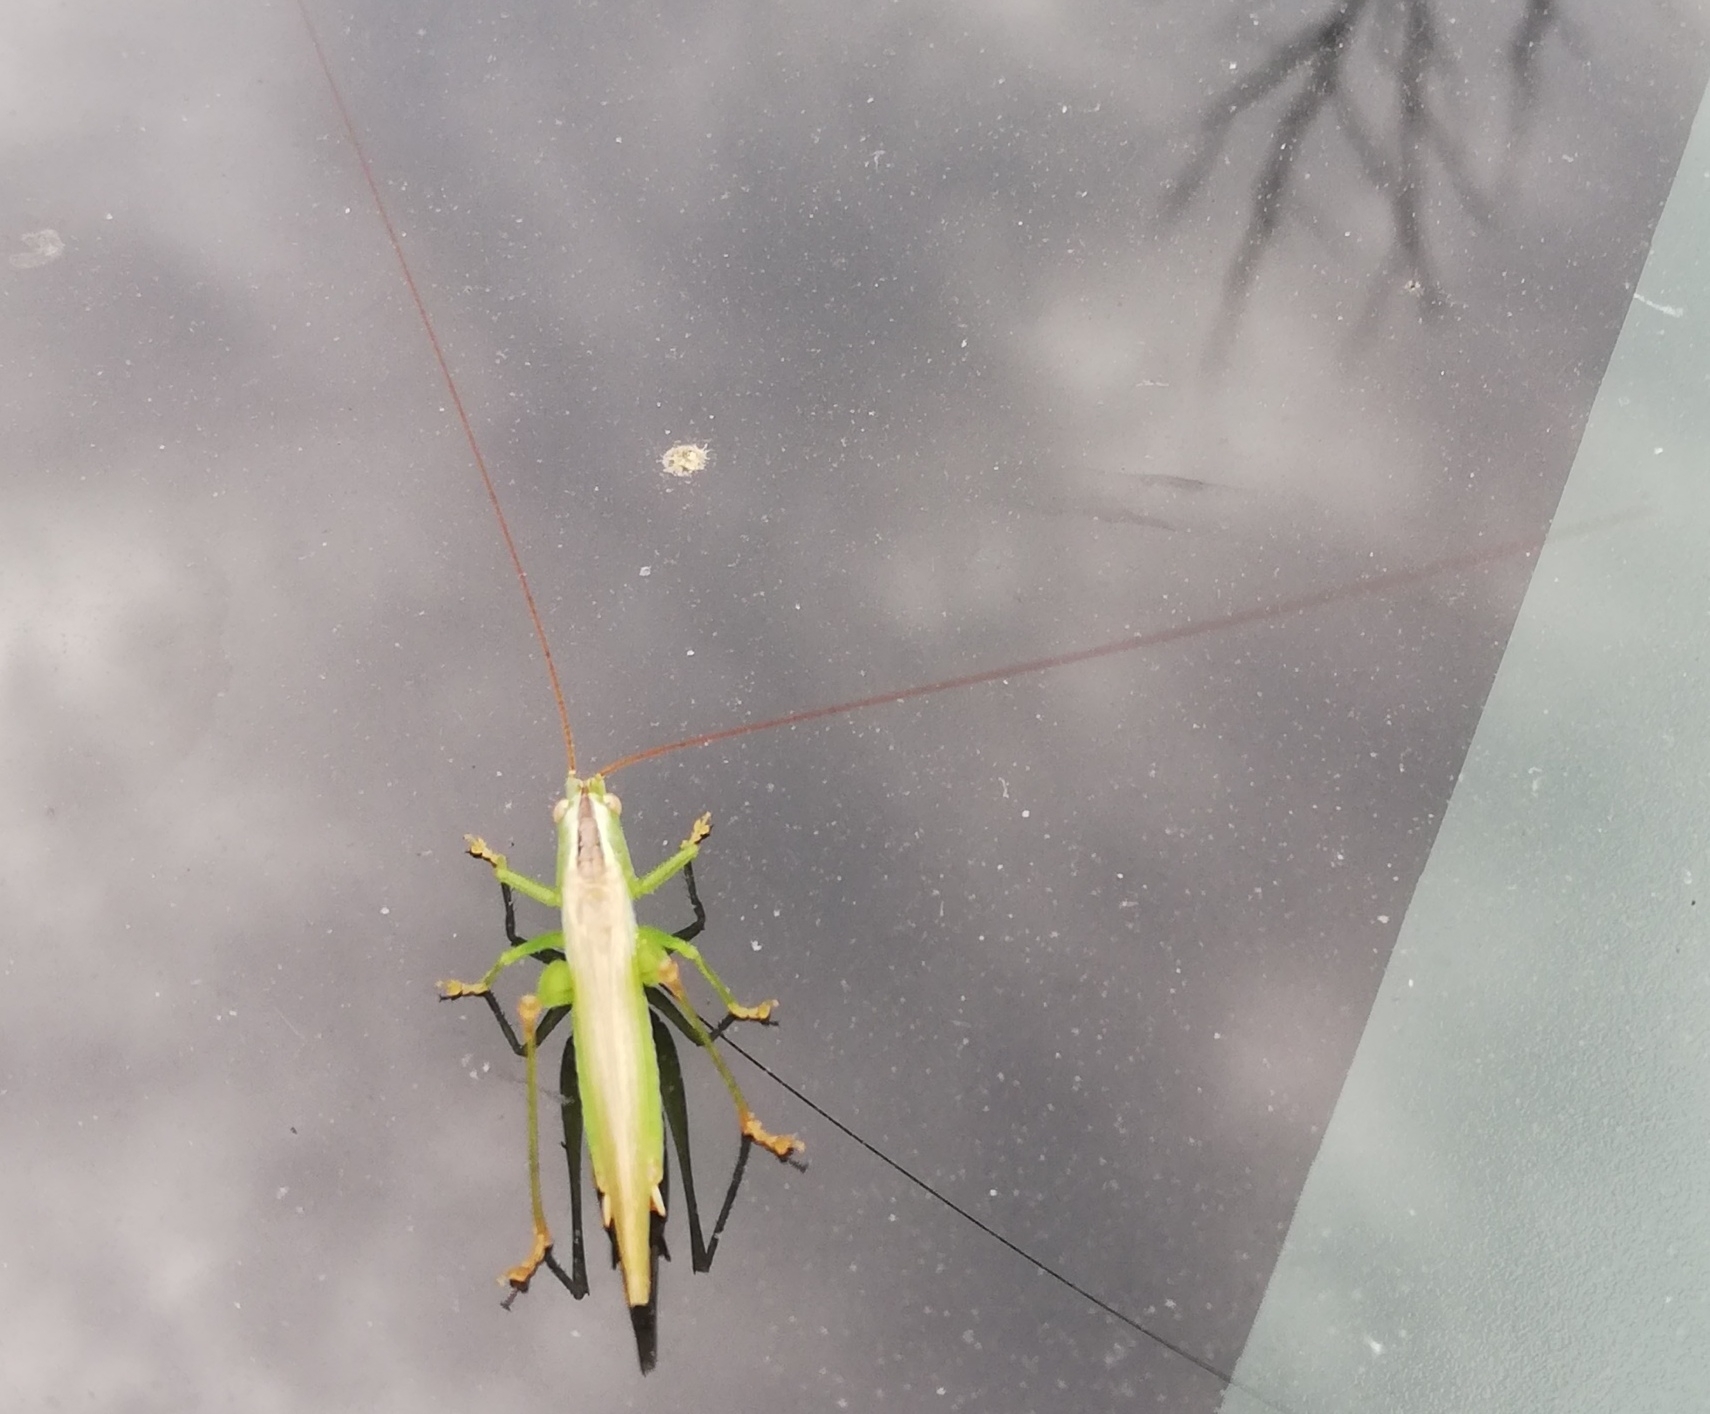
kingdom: Animalia
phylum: Arthropoda
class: Insecta
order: Orthoptera
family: Tettigoniidae
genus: Conocephalus
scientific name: Conocephalus fuscus
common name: Long-winged conehead
